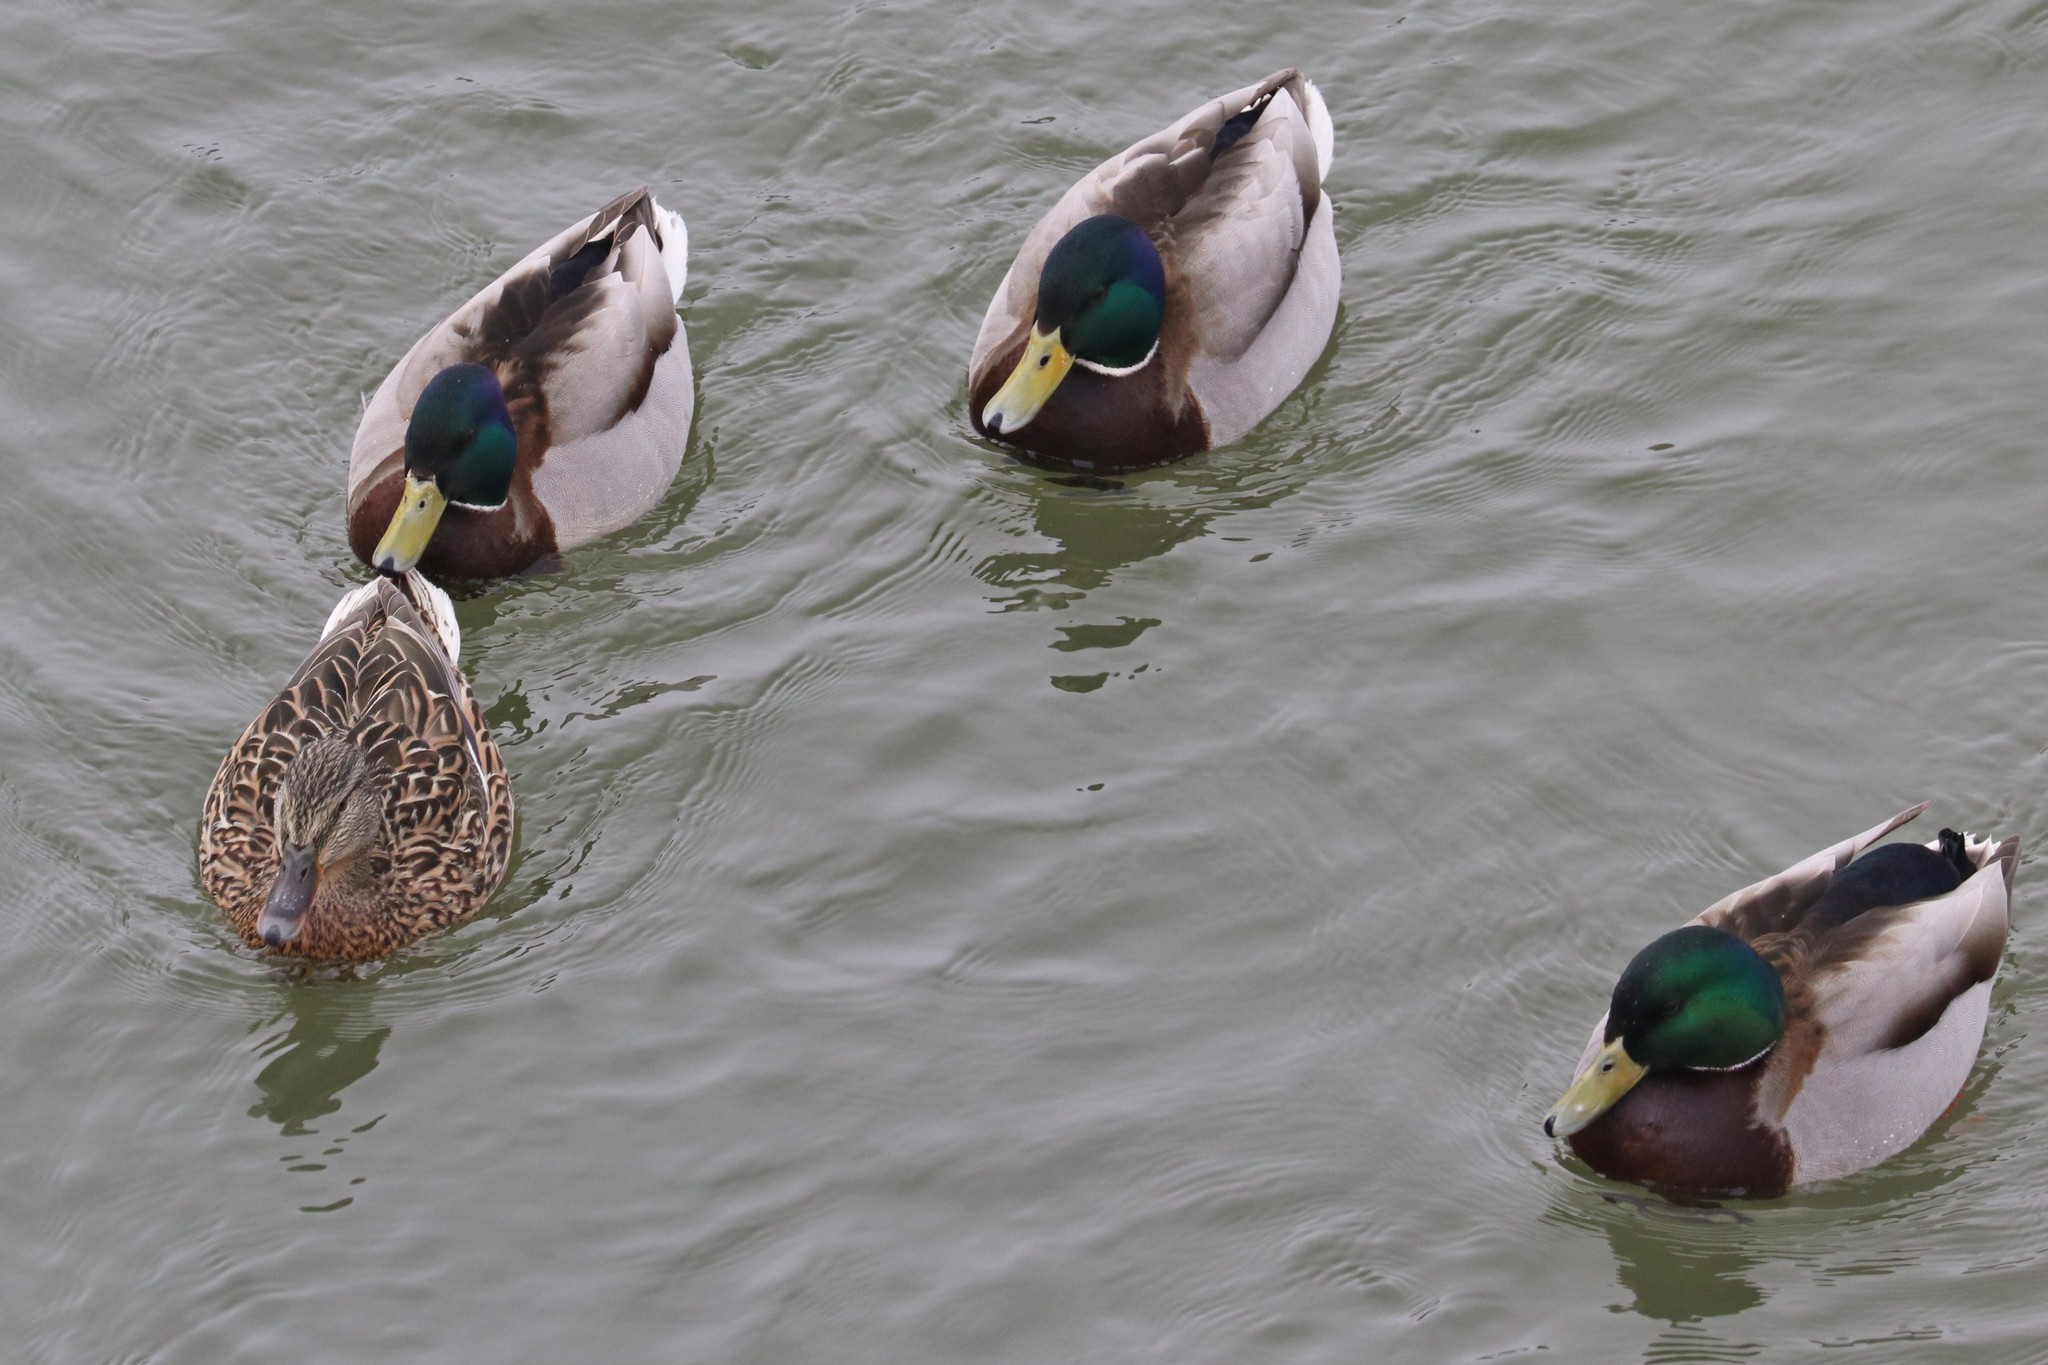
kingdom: Animalia
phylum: Chordata
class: Aves
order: Anseriformes
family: Anatidae
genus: Anas
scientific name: Anas platyrhynchos
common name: Mallard
